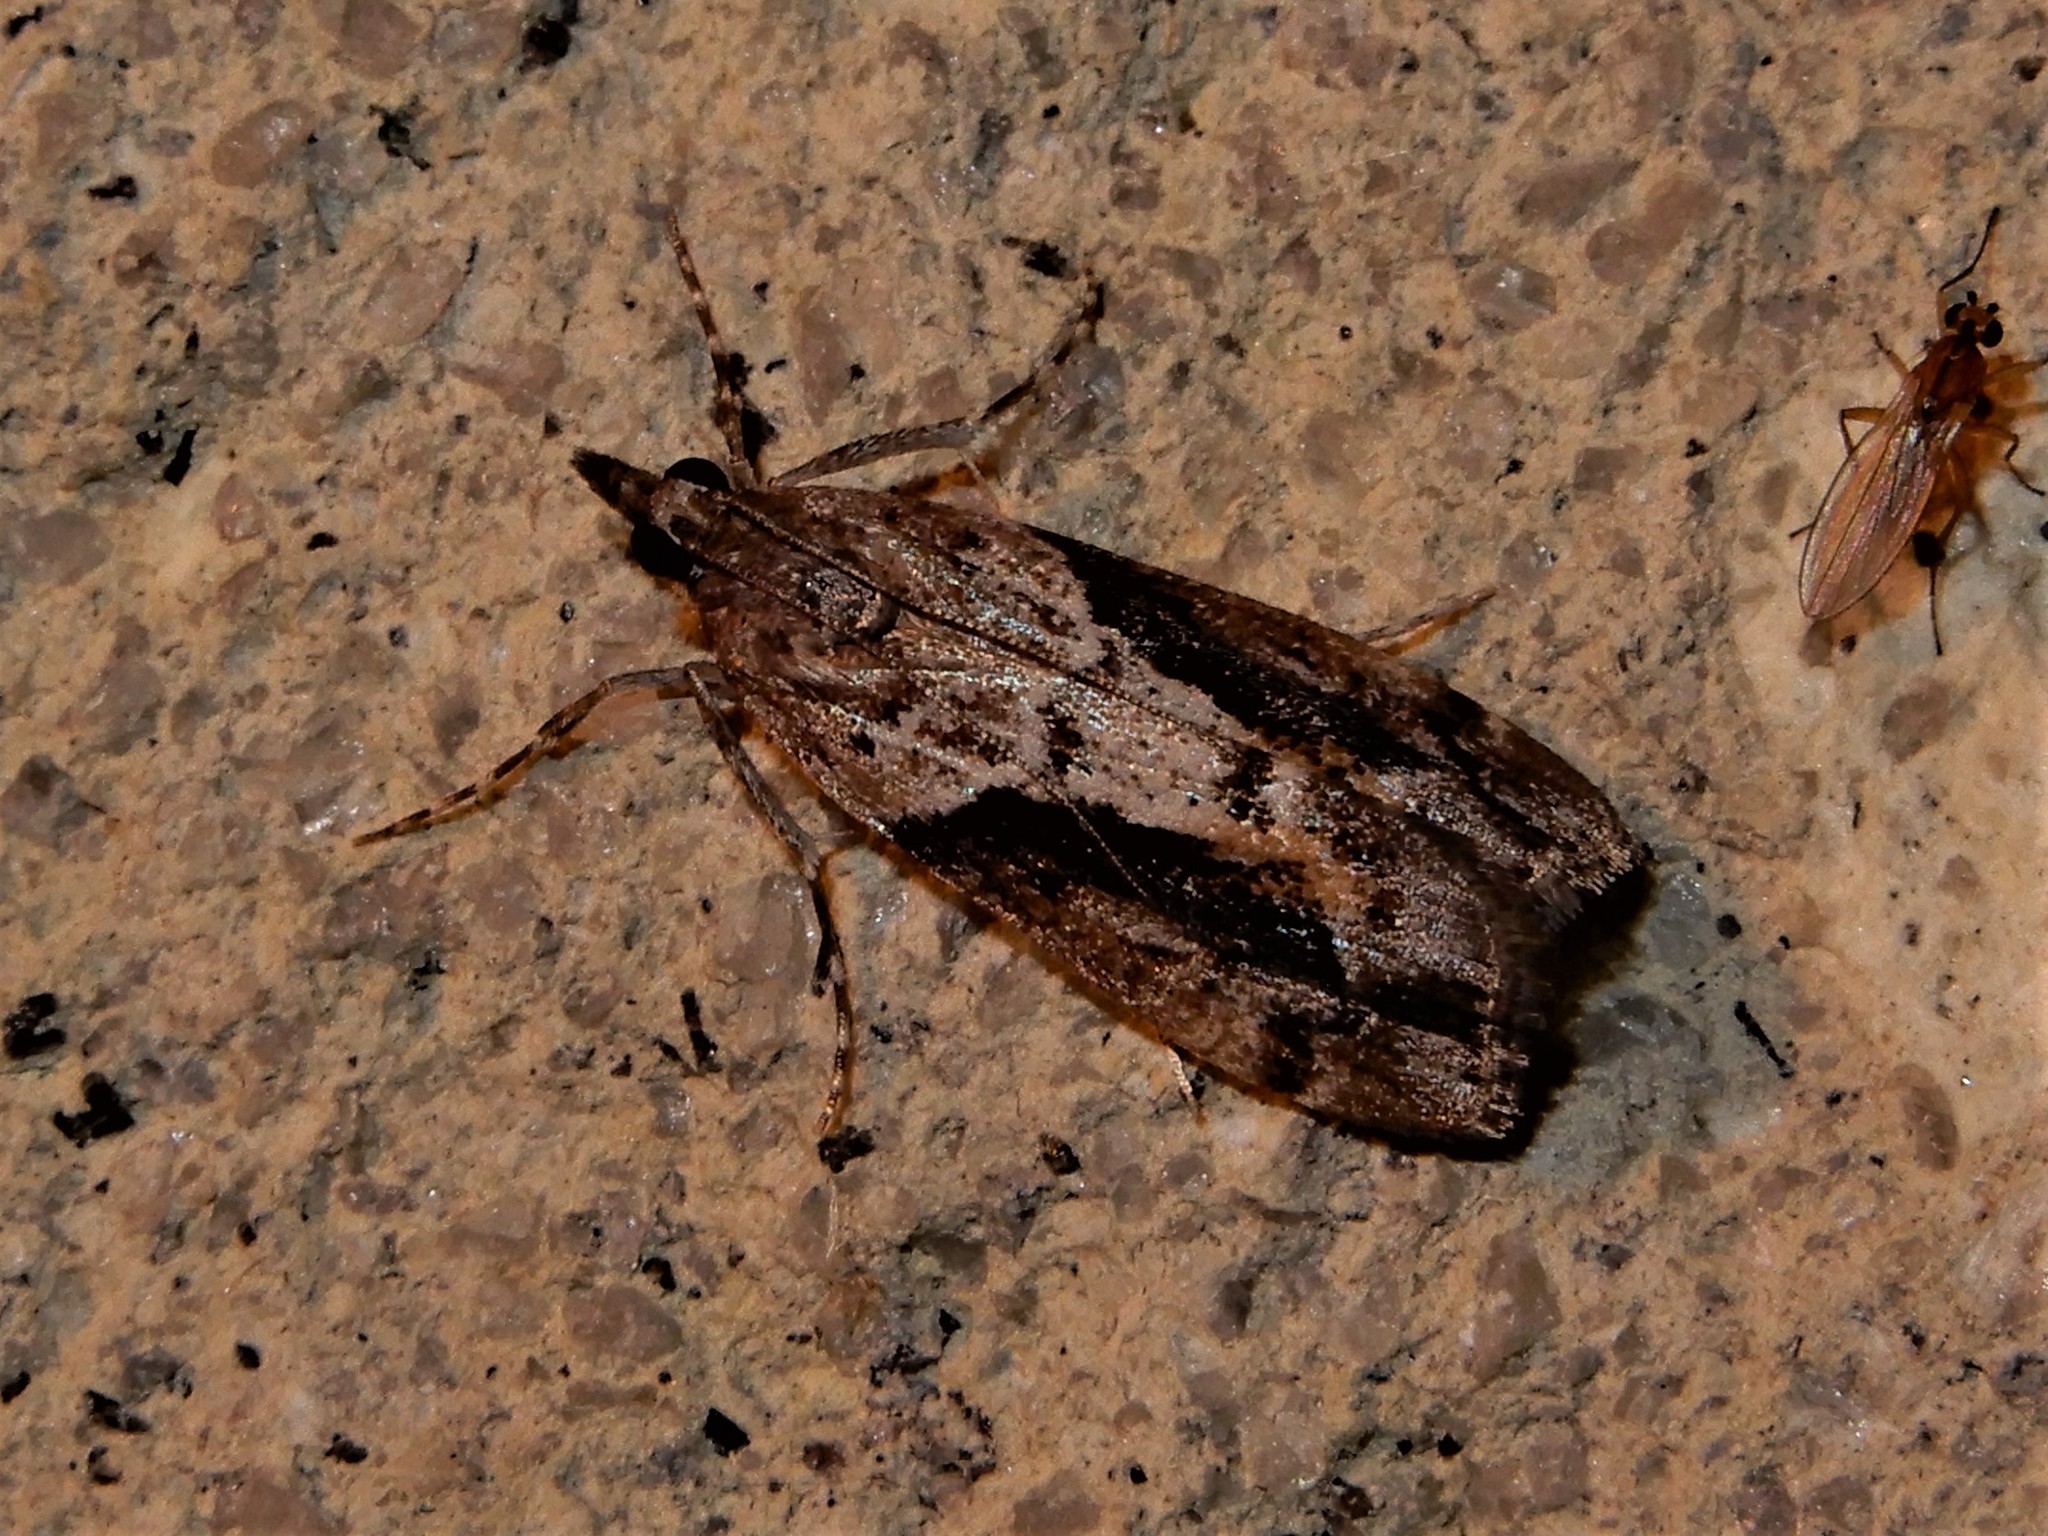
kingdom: Animalia
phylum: Arthropoda
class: Insecta
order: Lepidoptera
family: Crambidae
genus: Eudonia
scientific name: Eudonia submarginalis
